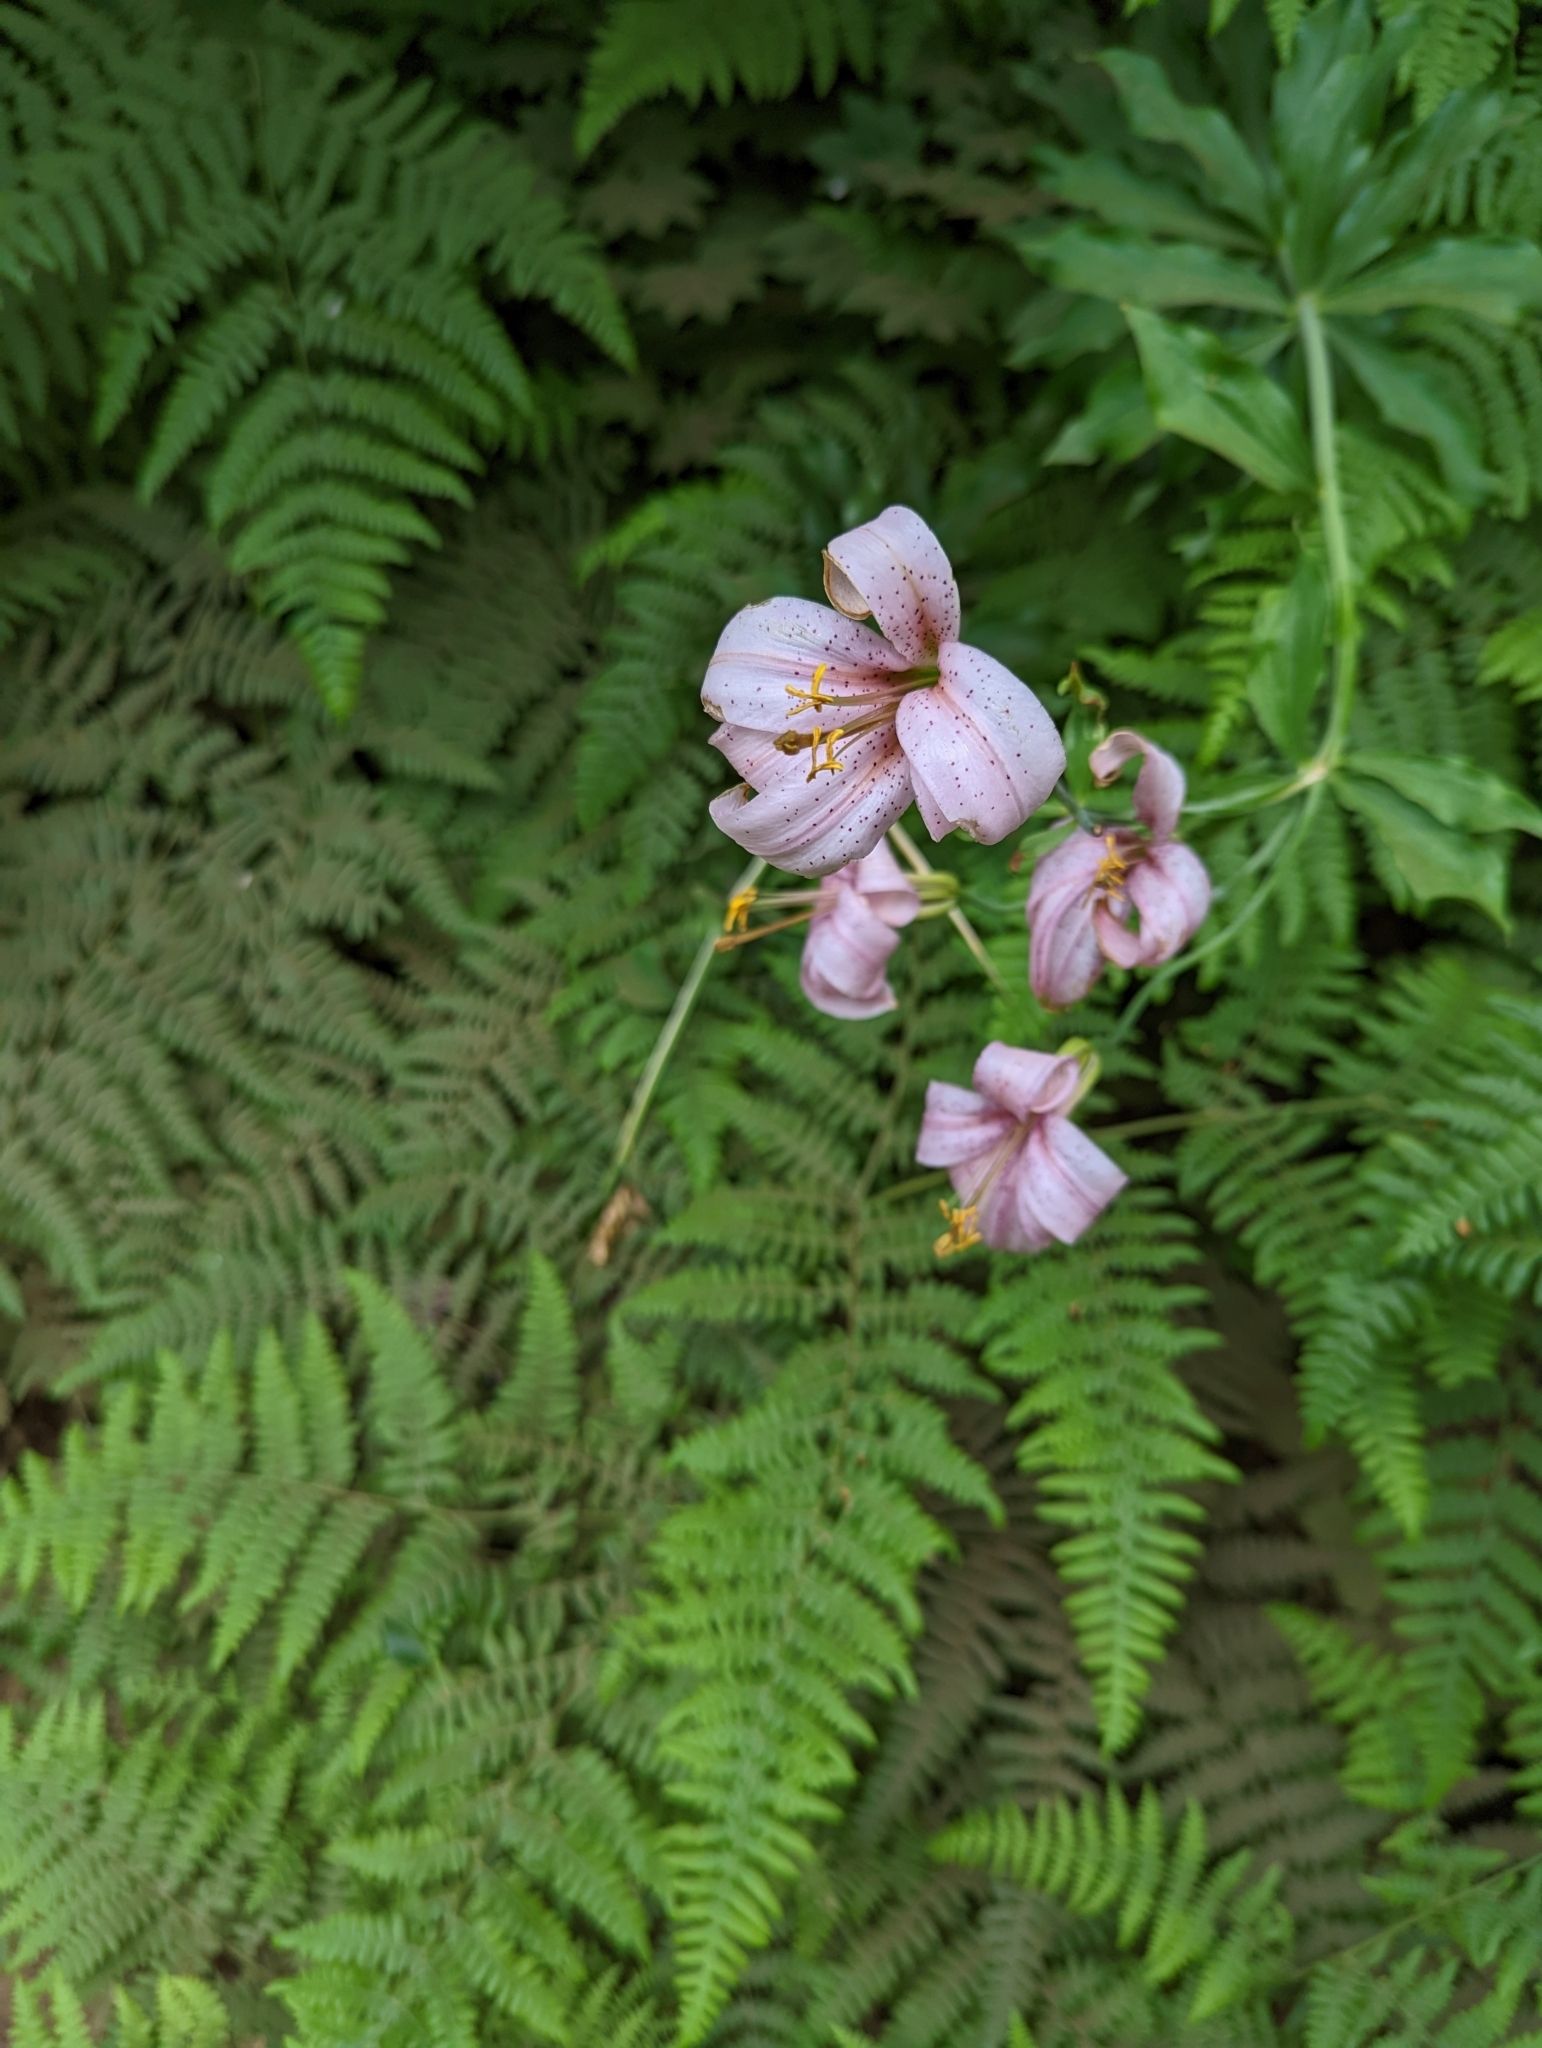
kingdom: Plantae
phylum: Tracheophyta
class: Liliopsida
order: Liliales
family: Liliaceae
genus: Lilium
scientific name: Lilium washingtonianum
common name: Washington lily
